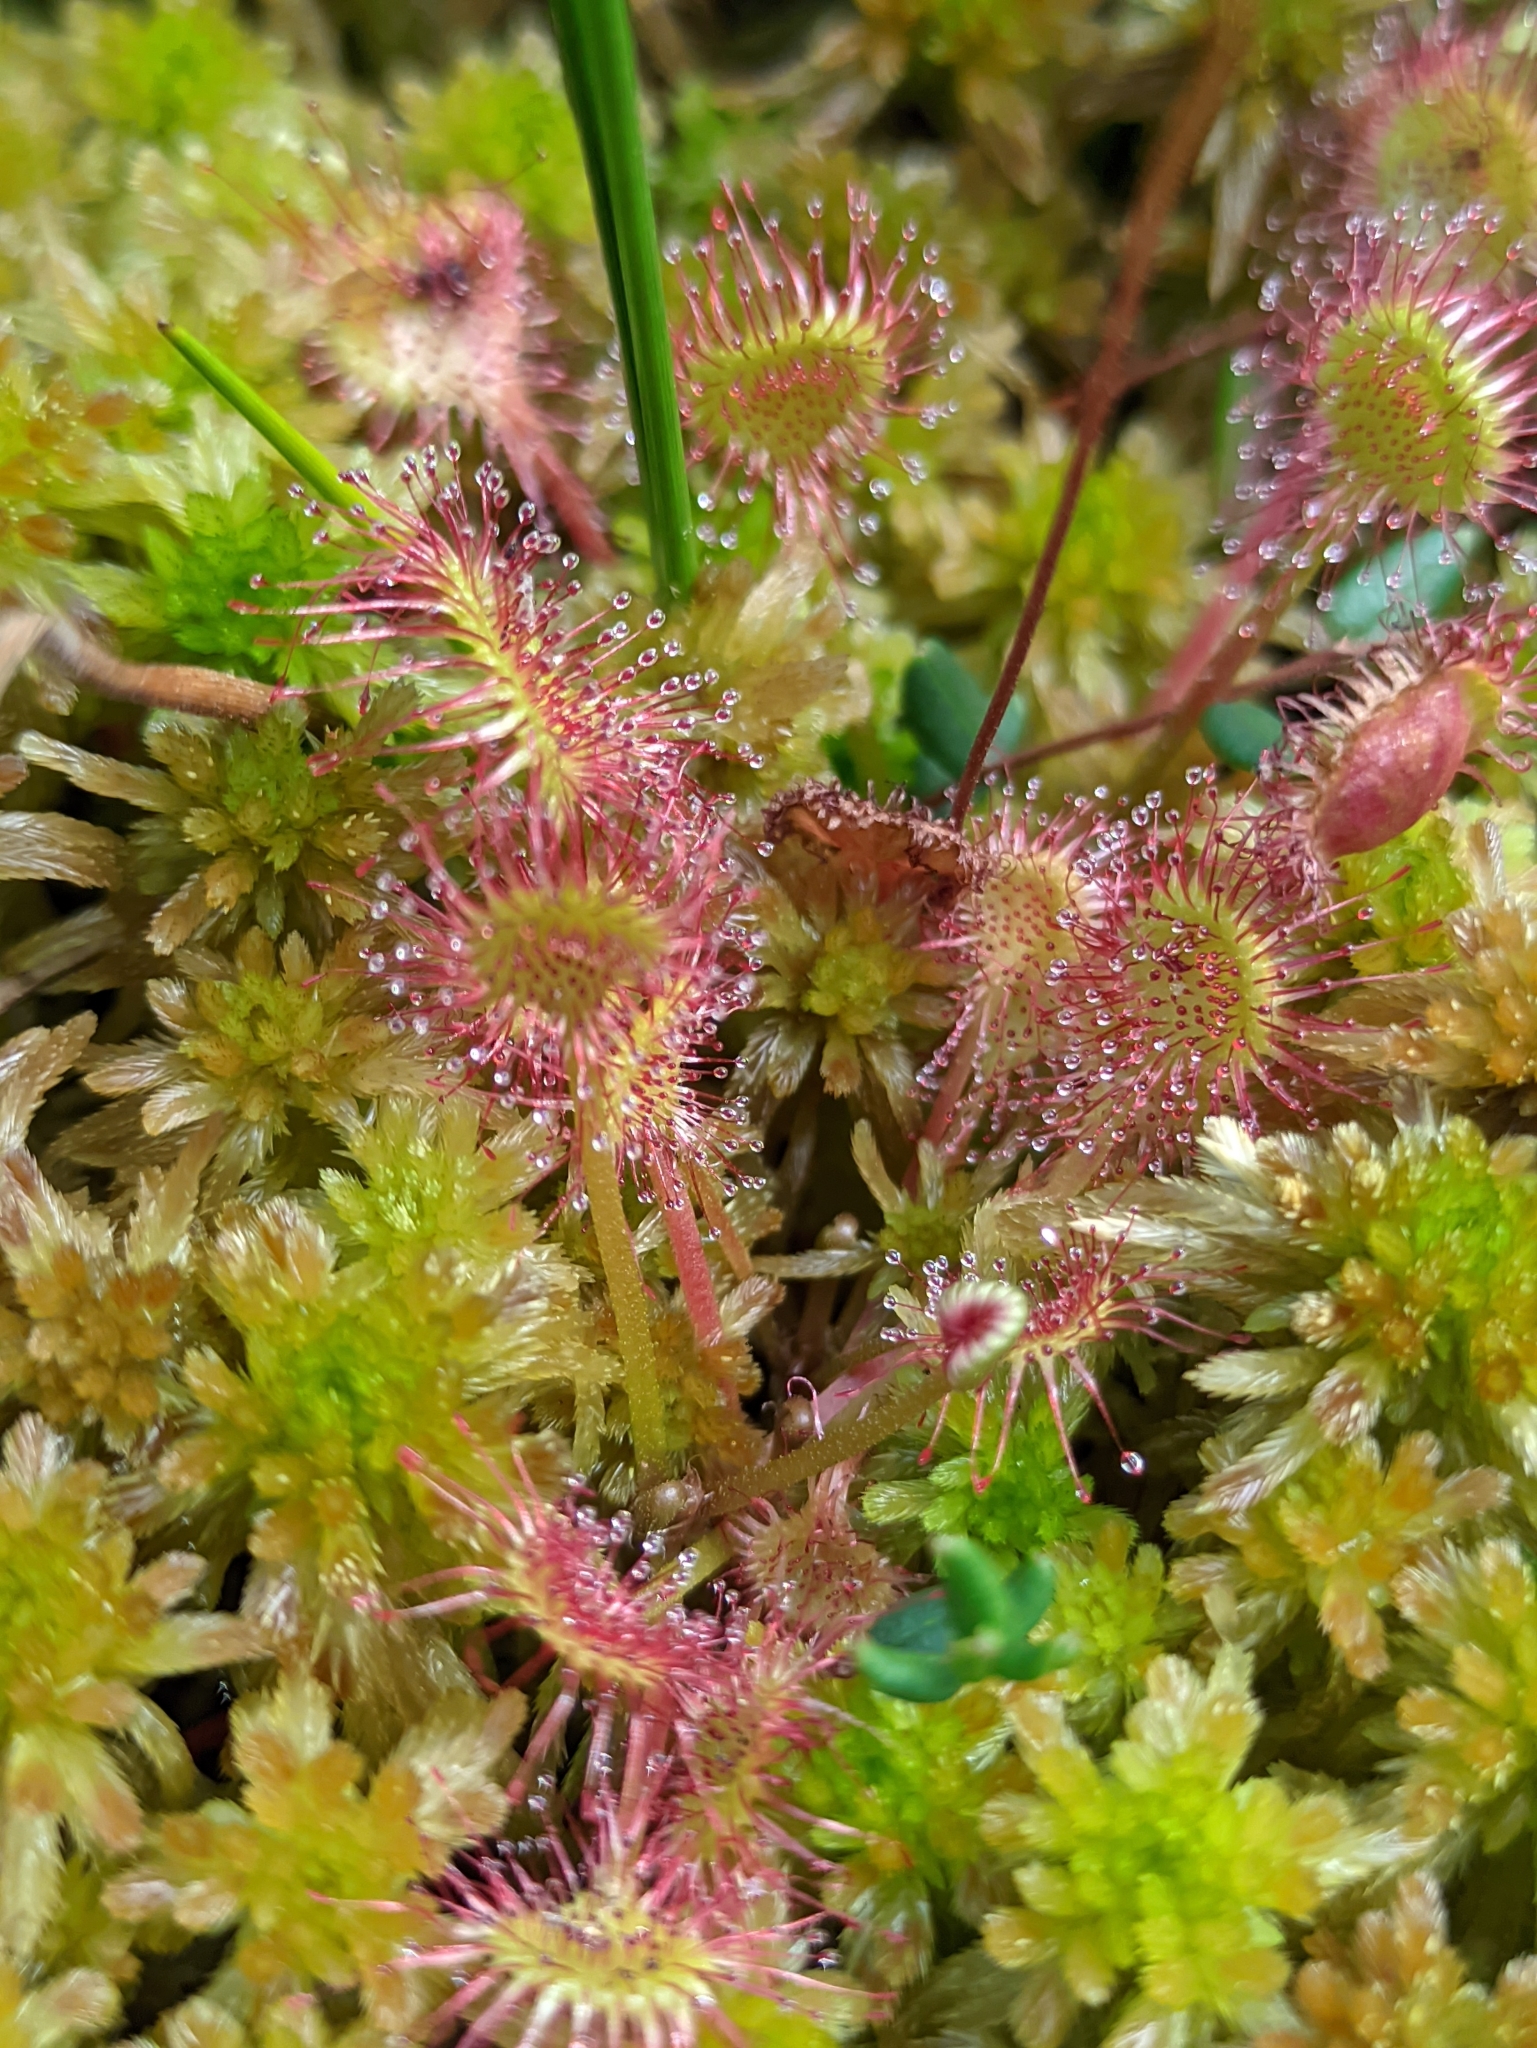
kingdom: Plantae
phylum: Tracheophyta
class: Magnoliopsida
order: Caryophyllales
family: Droseraceae
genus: Drosera
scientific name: Drosera rotundifolia
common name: Round-leaved sundew
